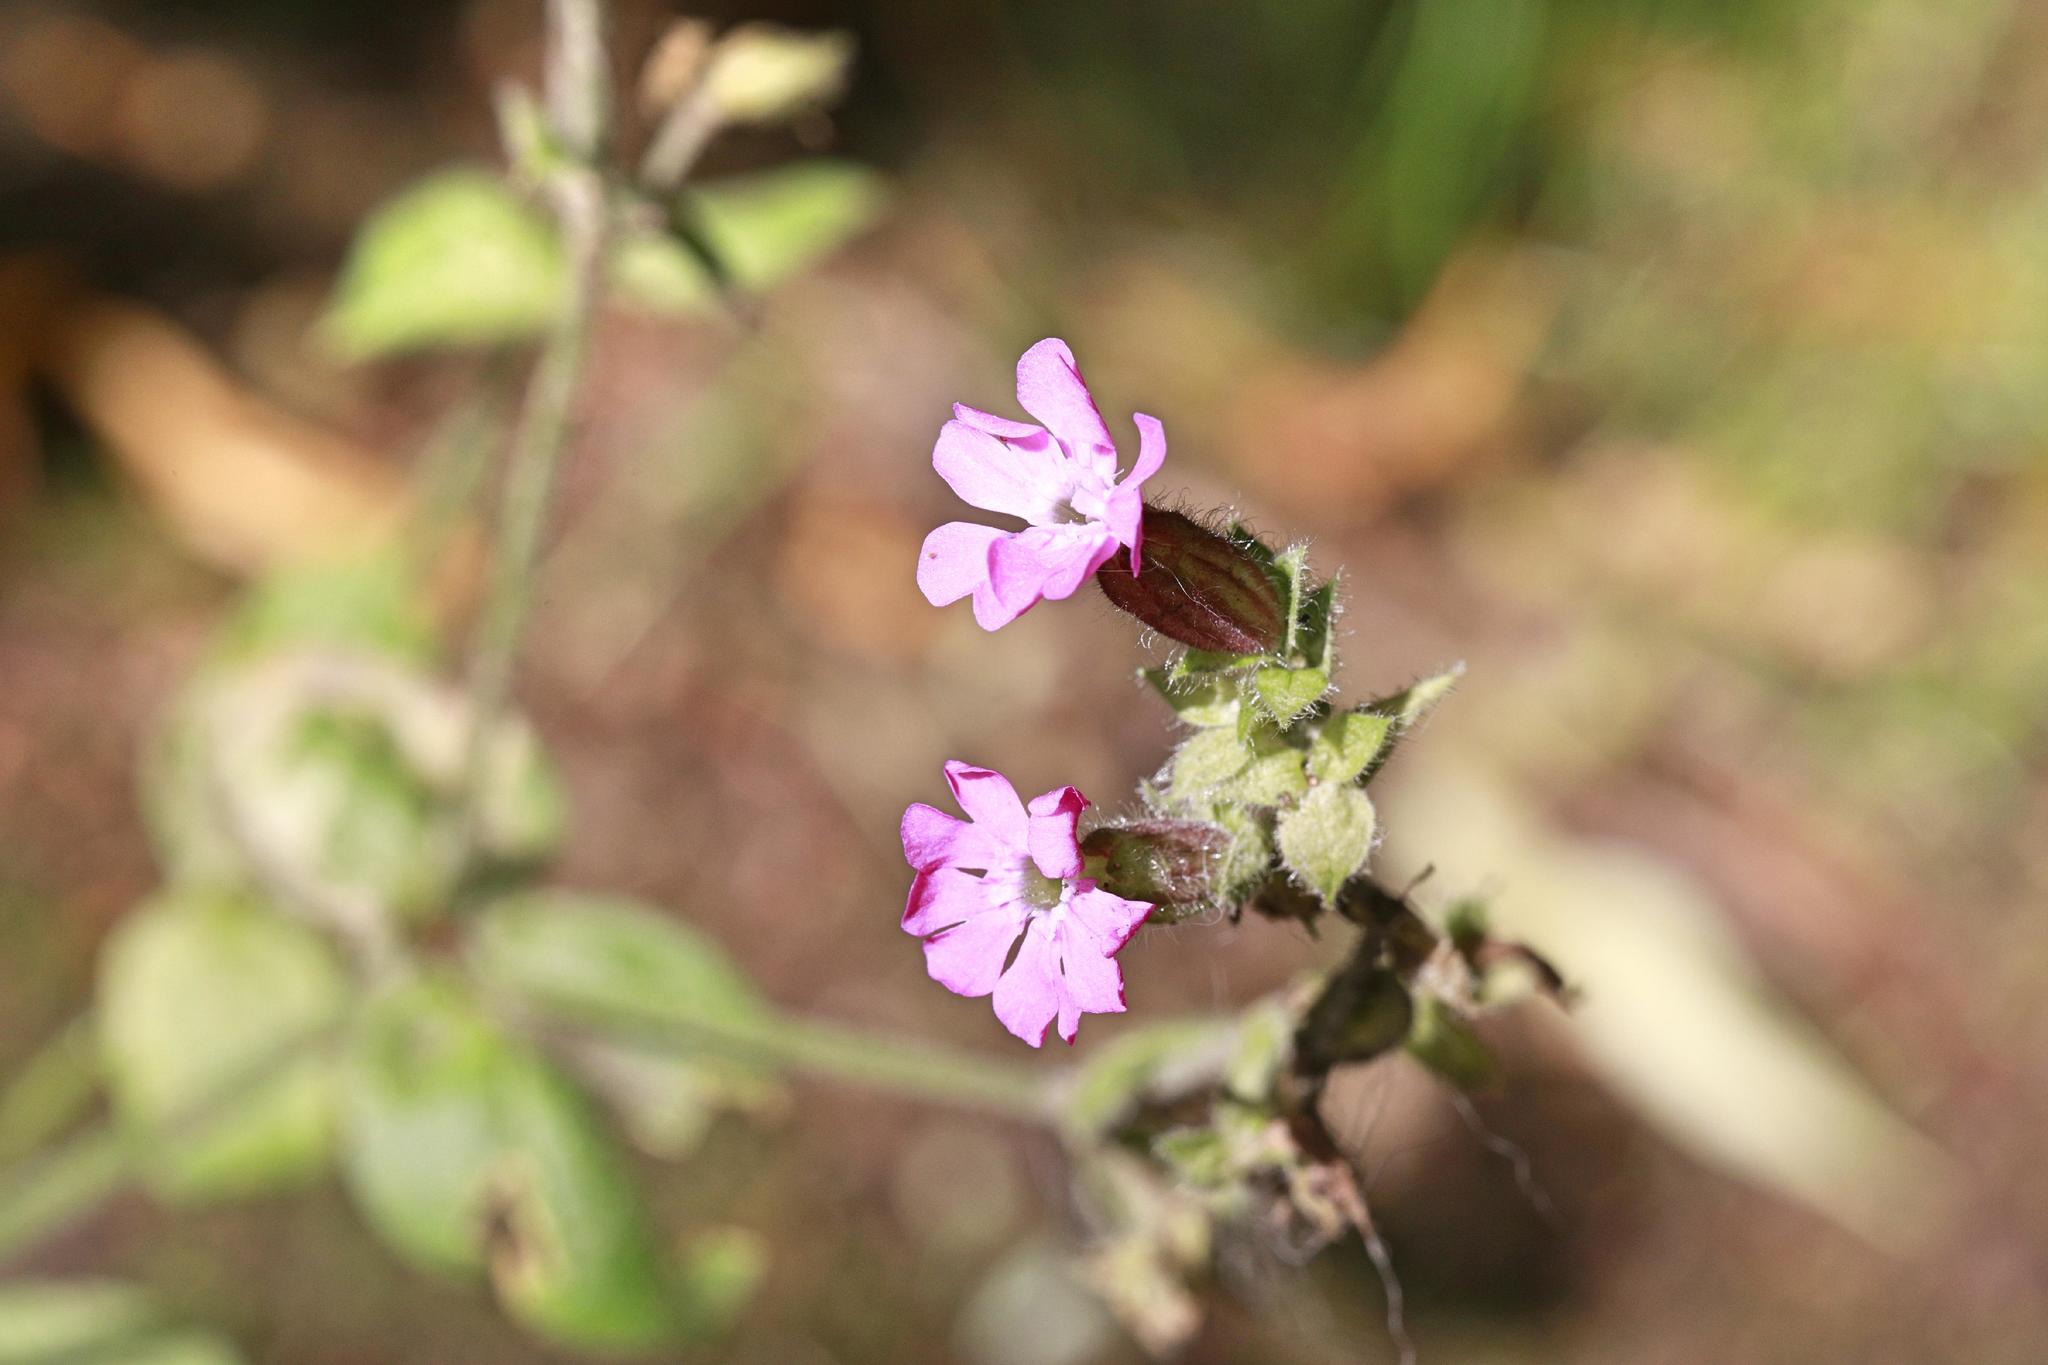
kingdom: Plantae
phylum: Tracheophyta
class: Magnoliopsida
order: Caryophyllales
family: Caryophyllaceae
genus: Silene
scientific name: Silene dioica
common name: Red campion
